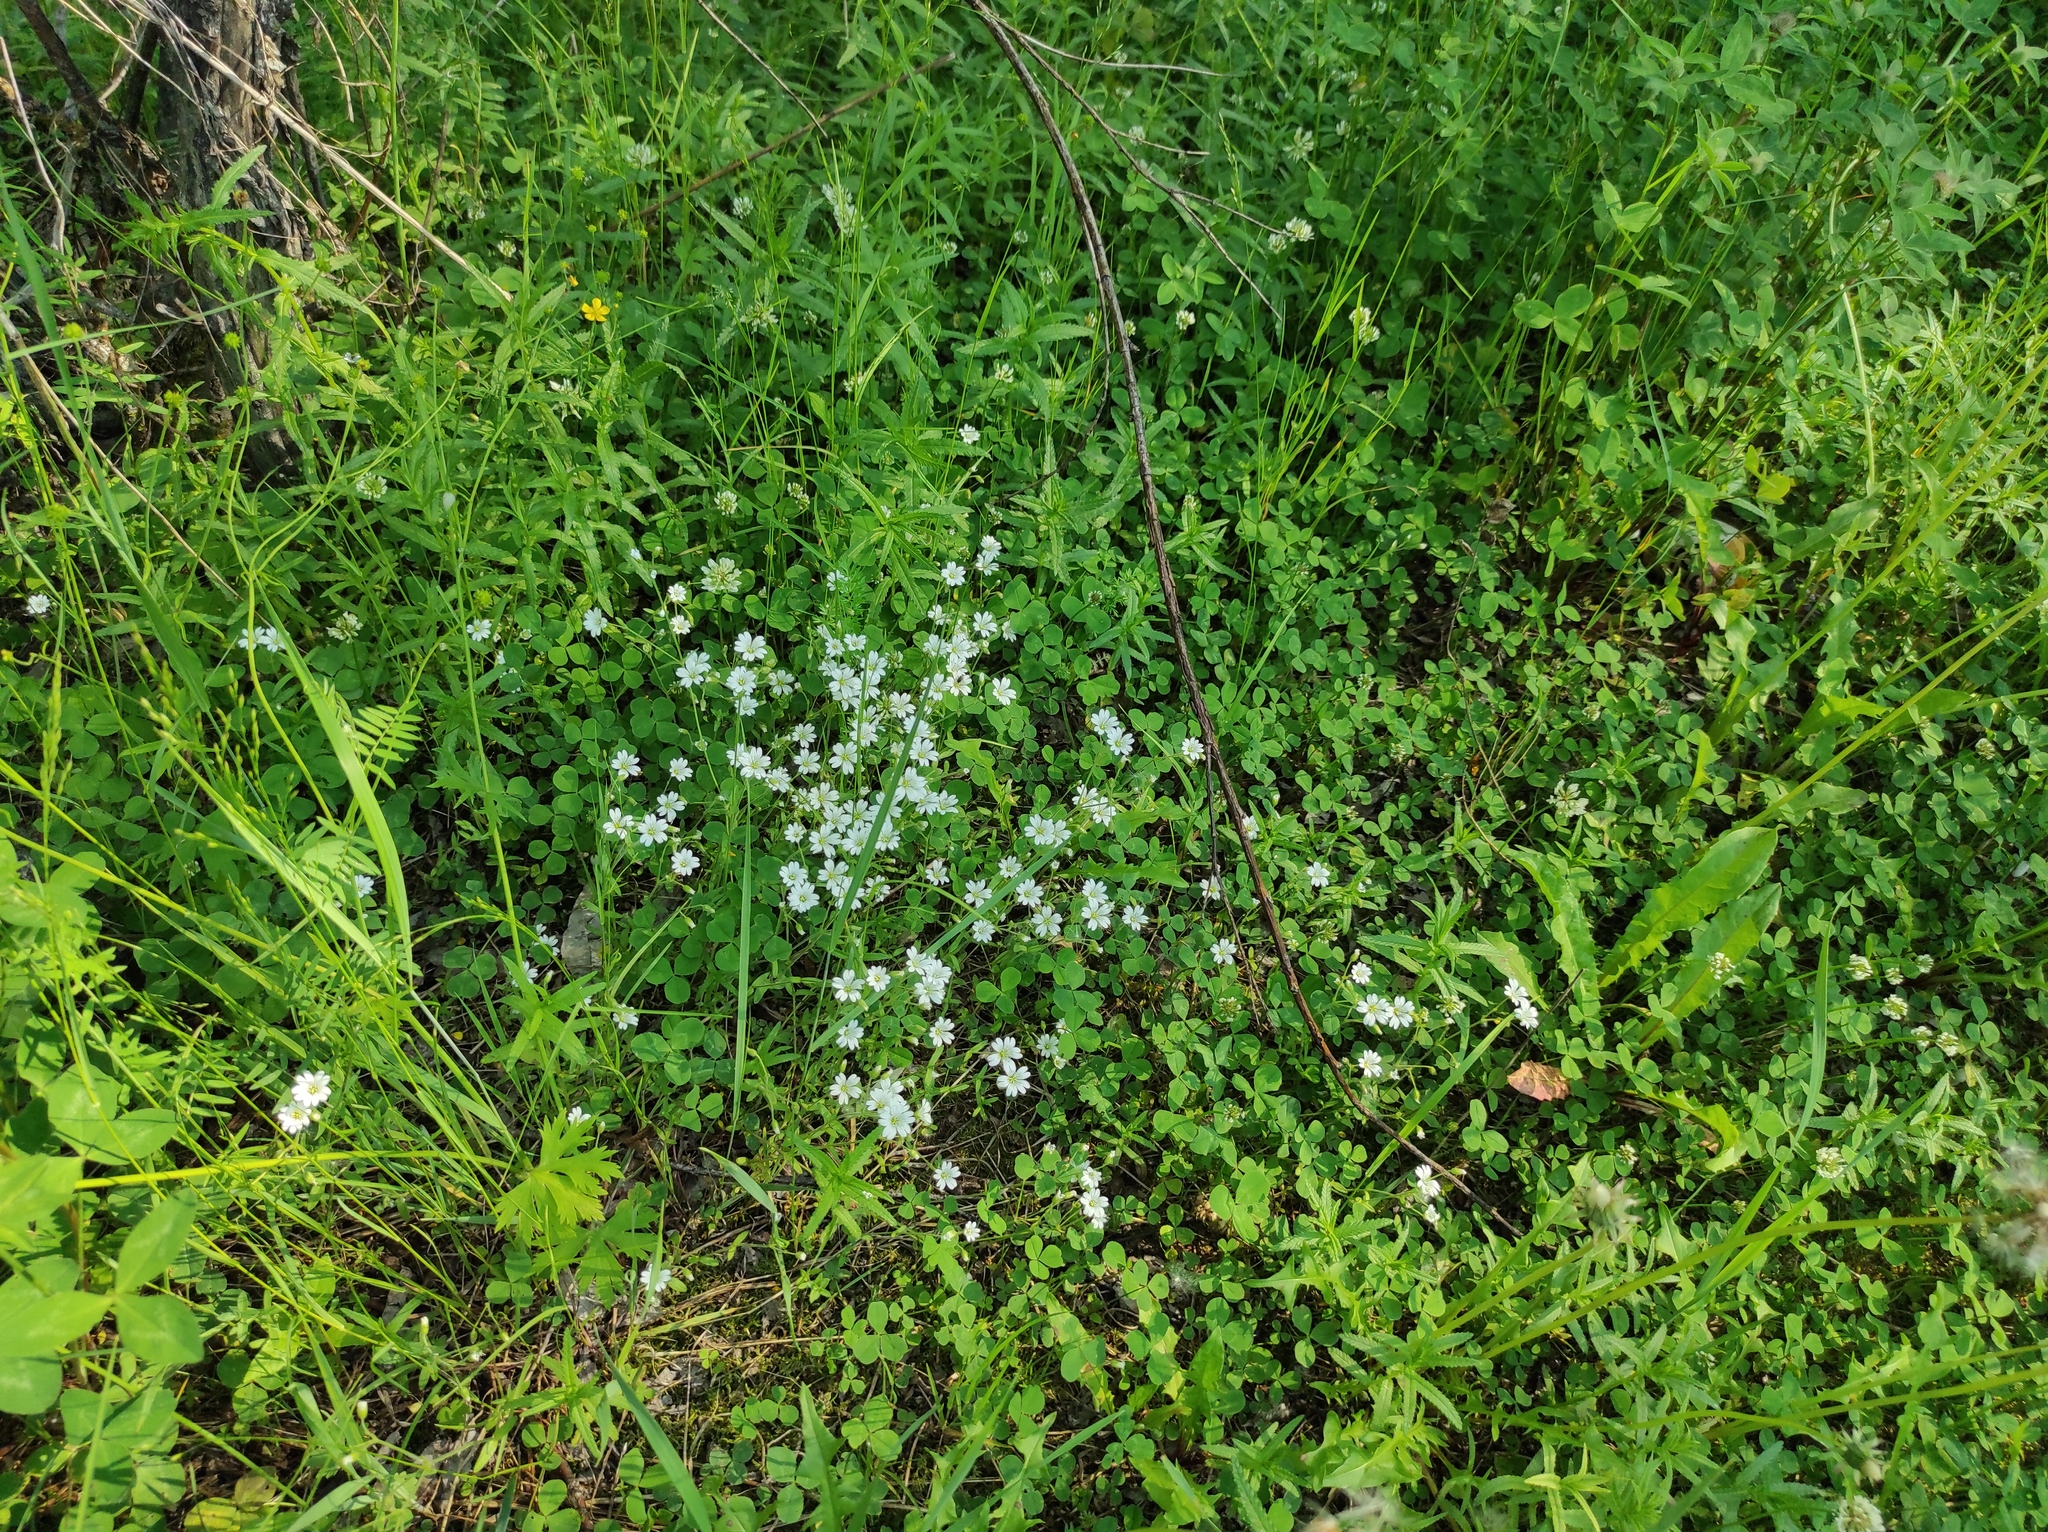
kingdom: Plantae
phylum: Tracheophyta
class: Magnoliopsida
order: Fabales
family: Fabaceae
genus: Trifolium
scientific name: Trifolium repens
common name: White clover
